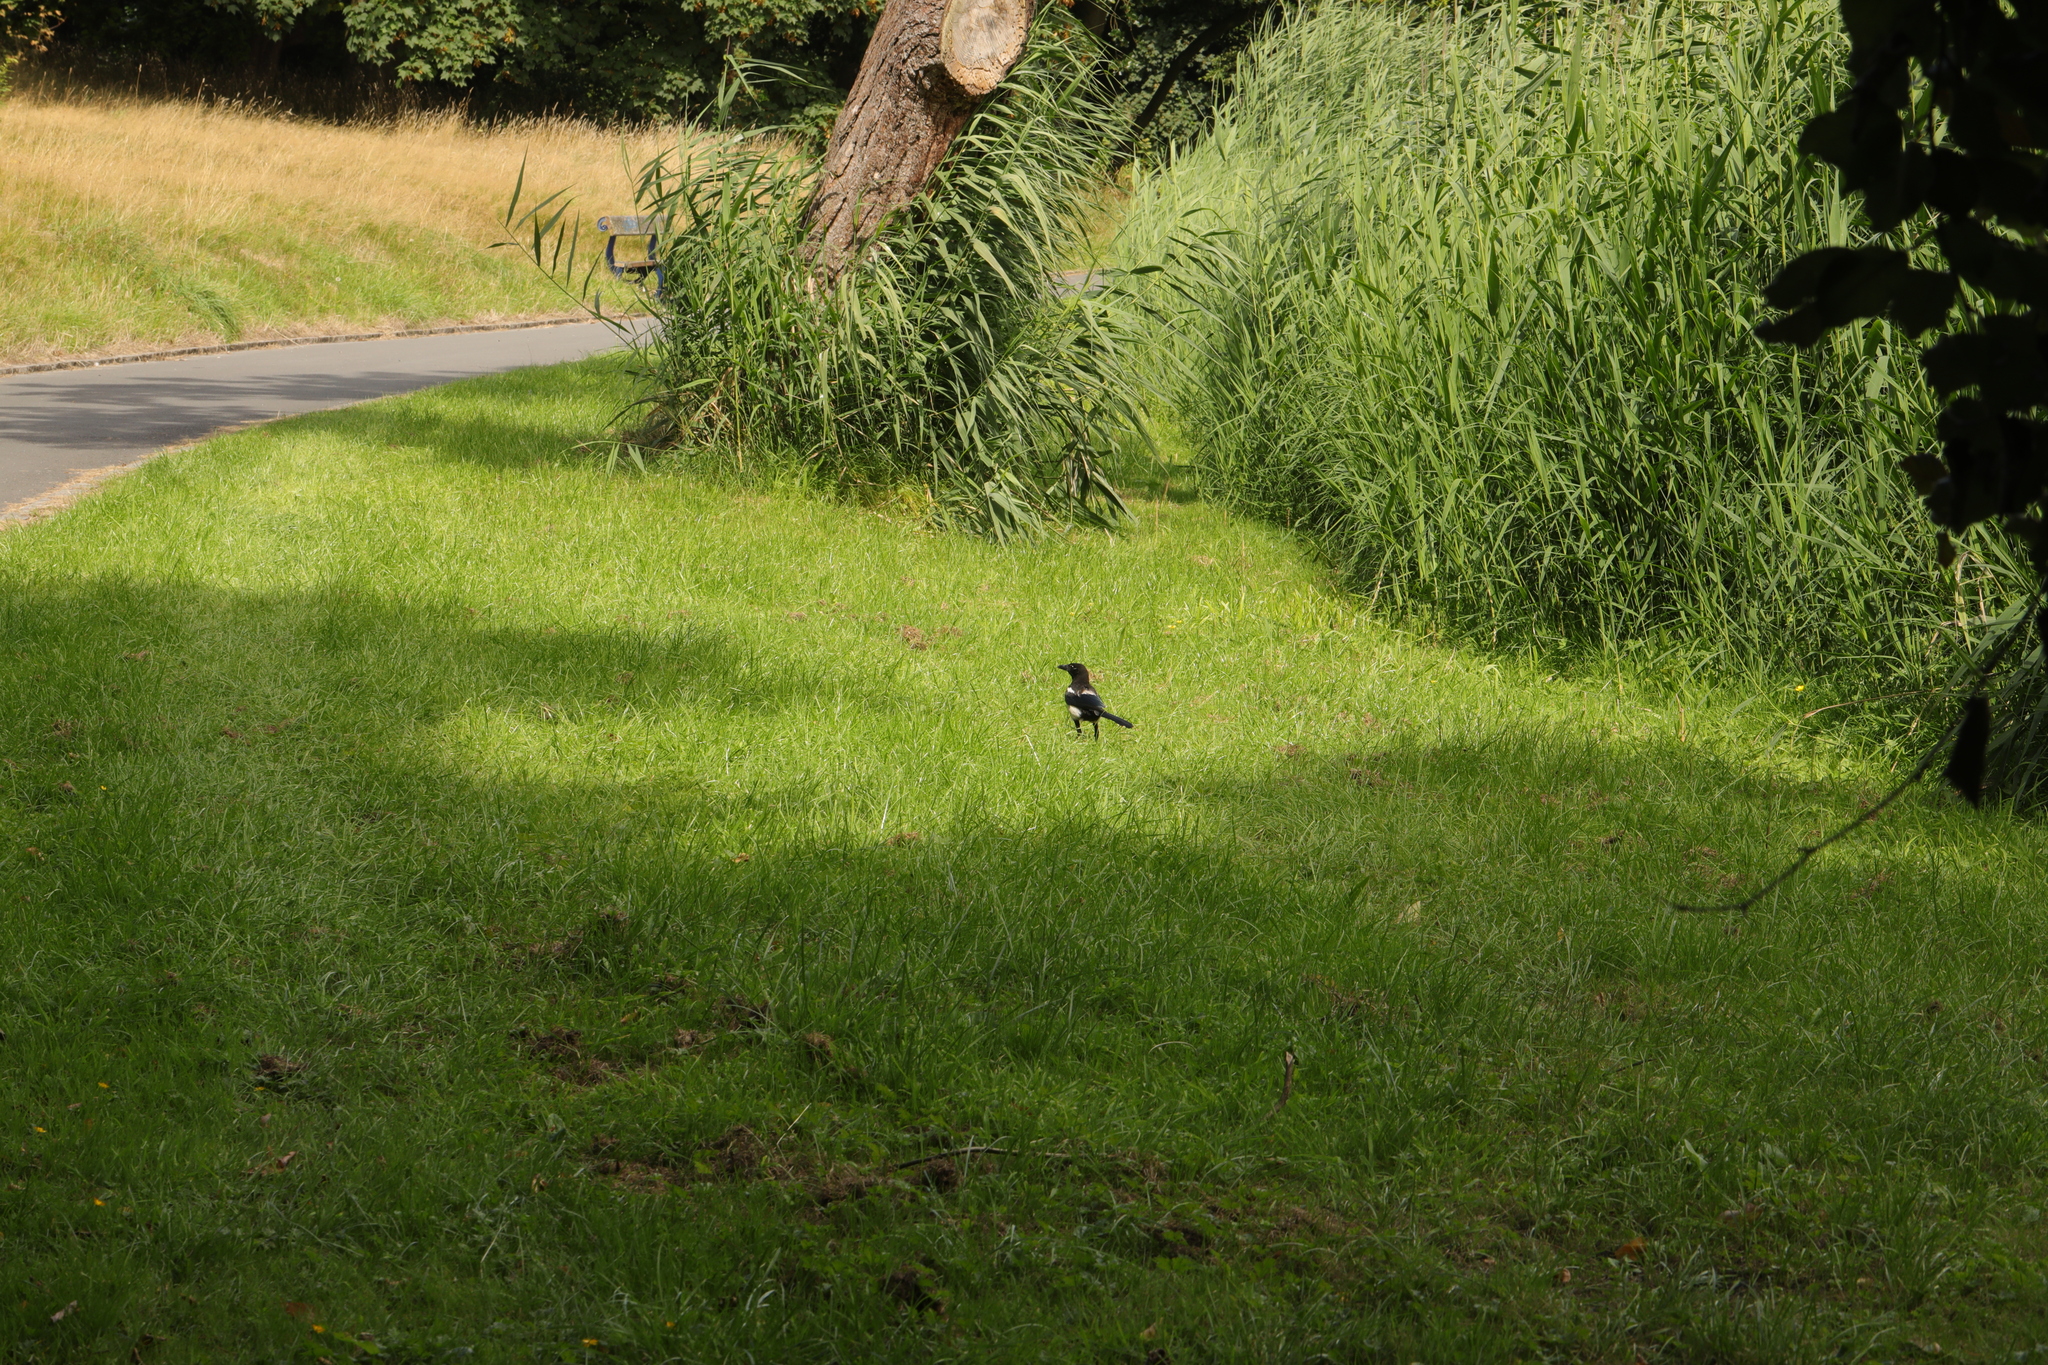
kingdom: Animalia
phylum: Chordata
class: Aves
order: Passeriformes
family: Corvidae
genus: Pica
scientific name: Pica pica
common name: Eurasian magpie
